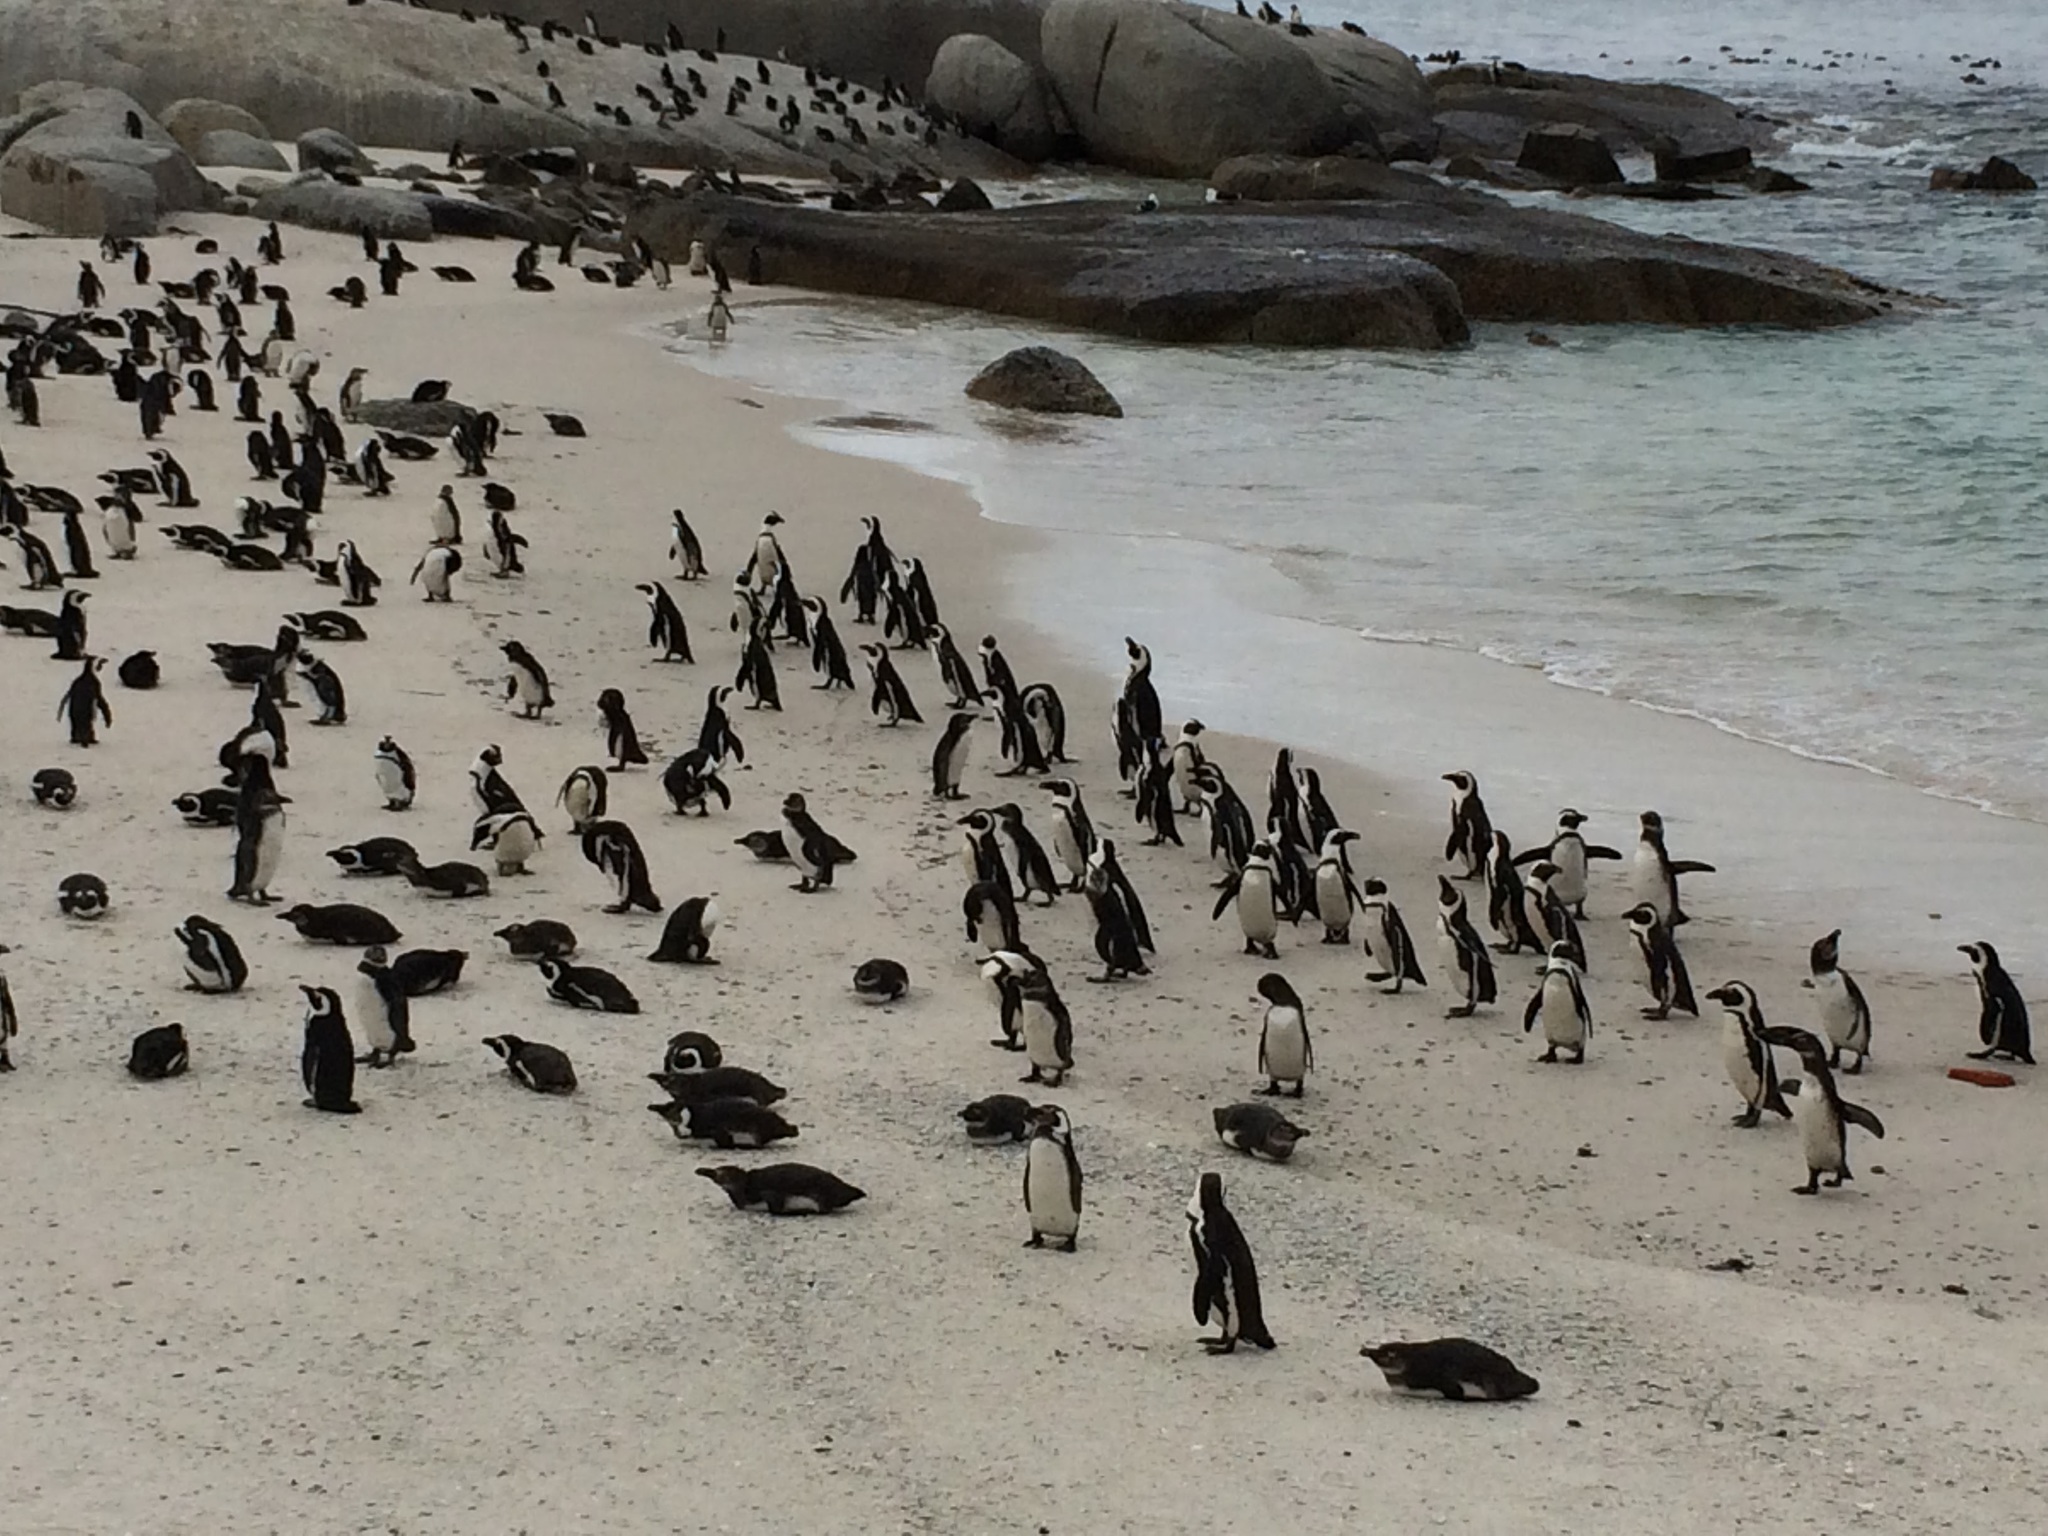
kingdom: Animalia
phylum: Chordata
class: Aves
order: Sphenisciformes
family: Spheniscidae
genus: Spheniscus
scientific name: Spheniscus demersus
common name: African penguin
